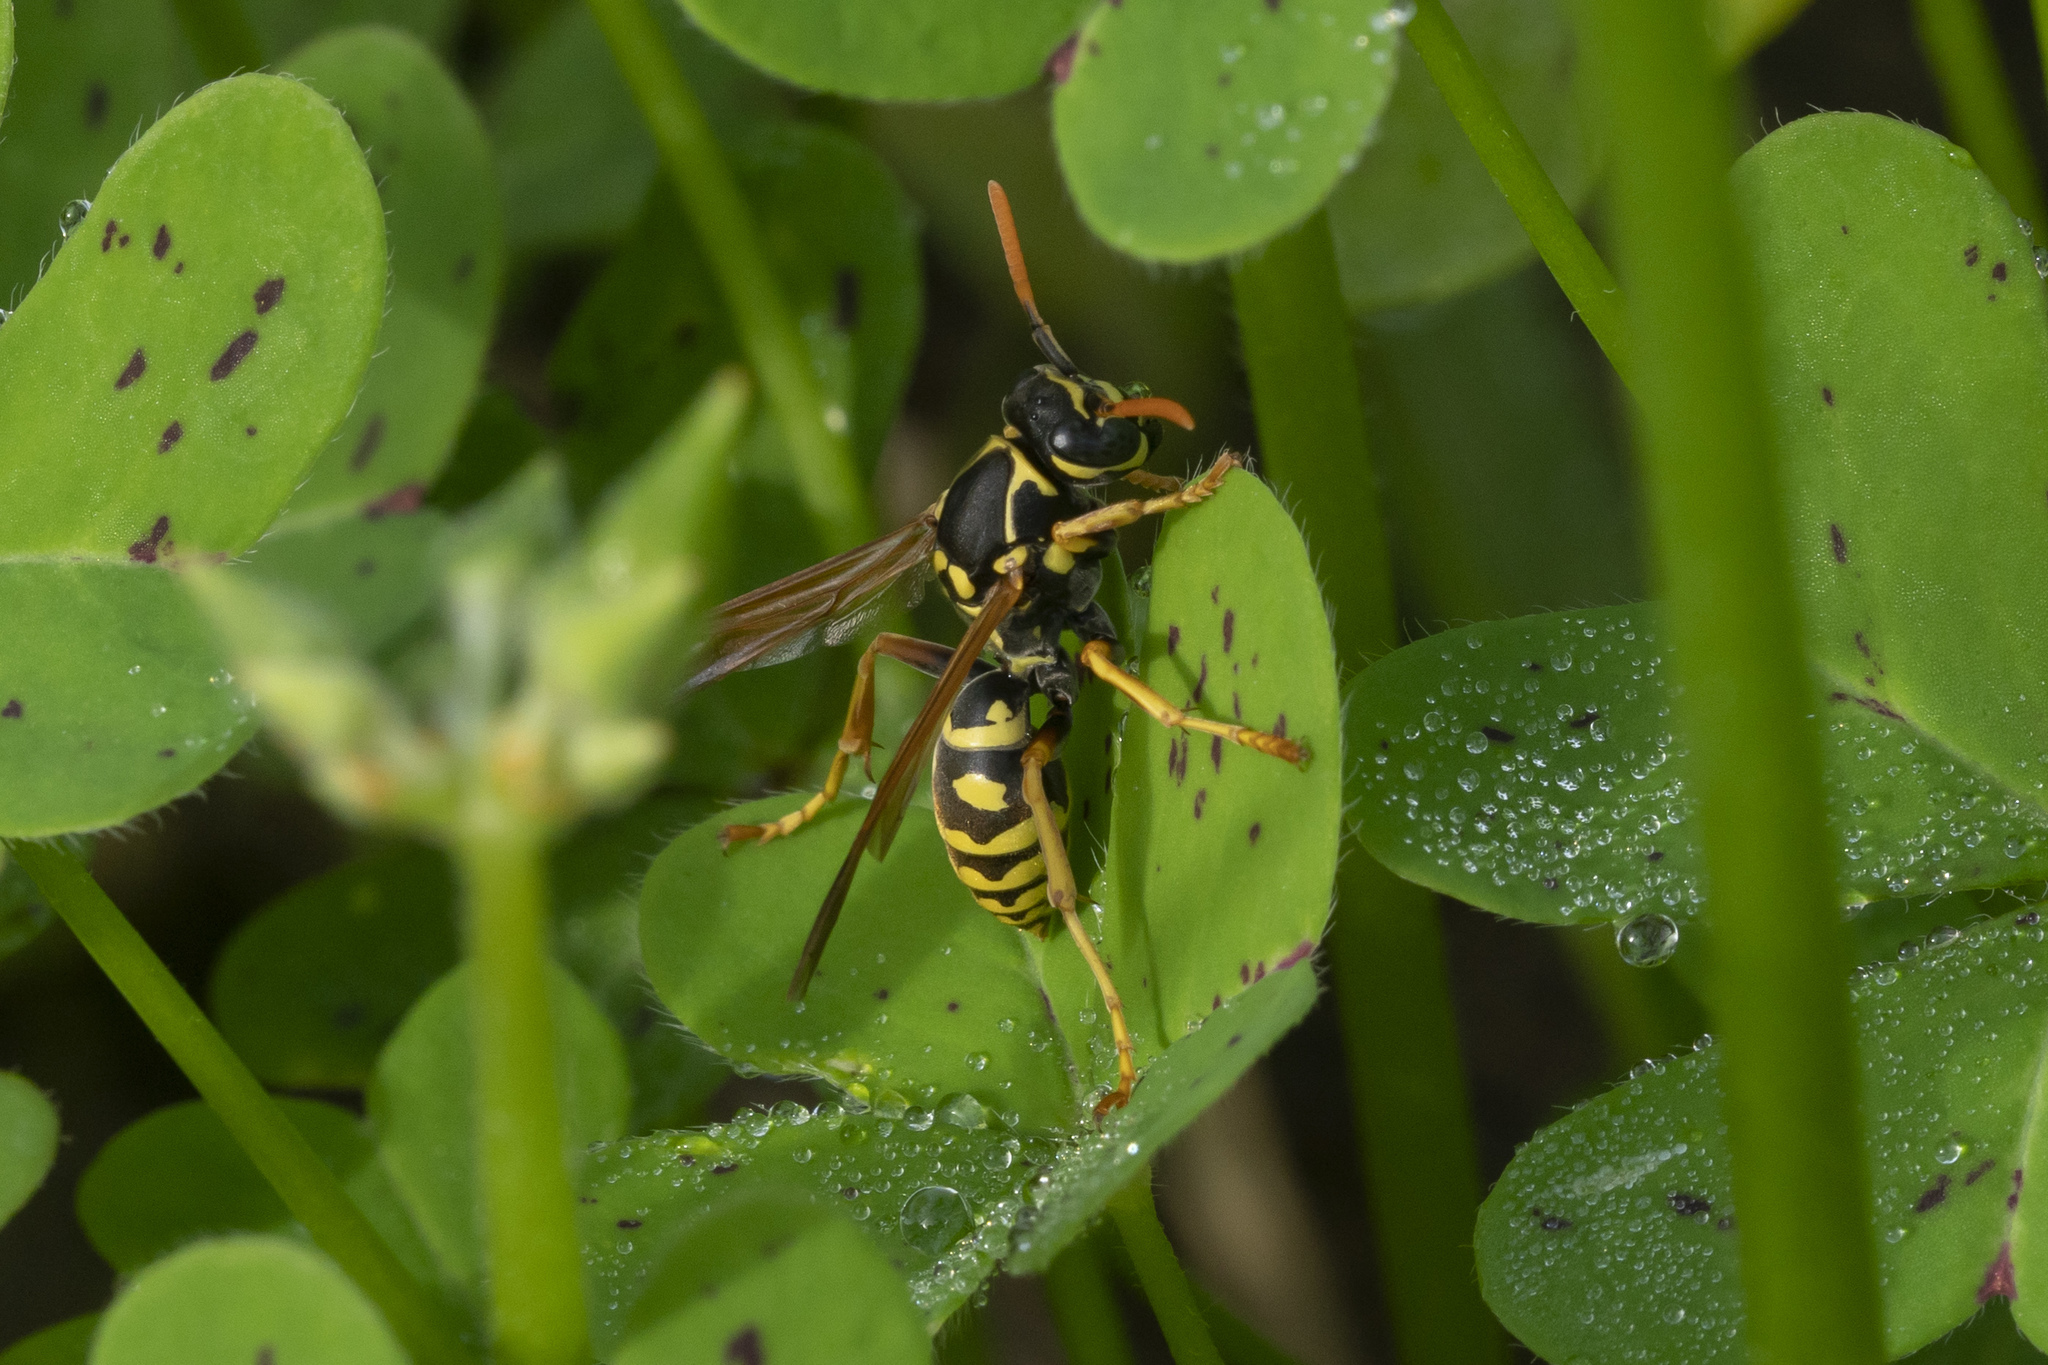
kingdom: Animalia
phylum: Arthropoda
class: Insecta
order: Hymenoptera
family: Eumenidae
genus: Polistes
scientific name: Polistes nimpha
